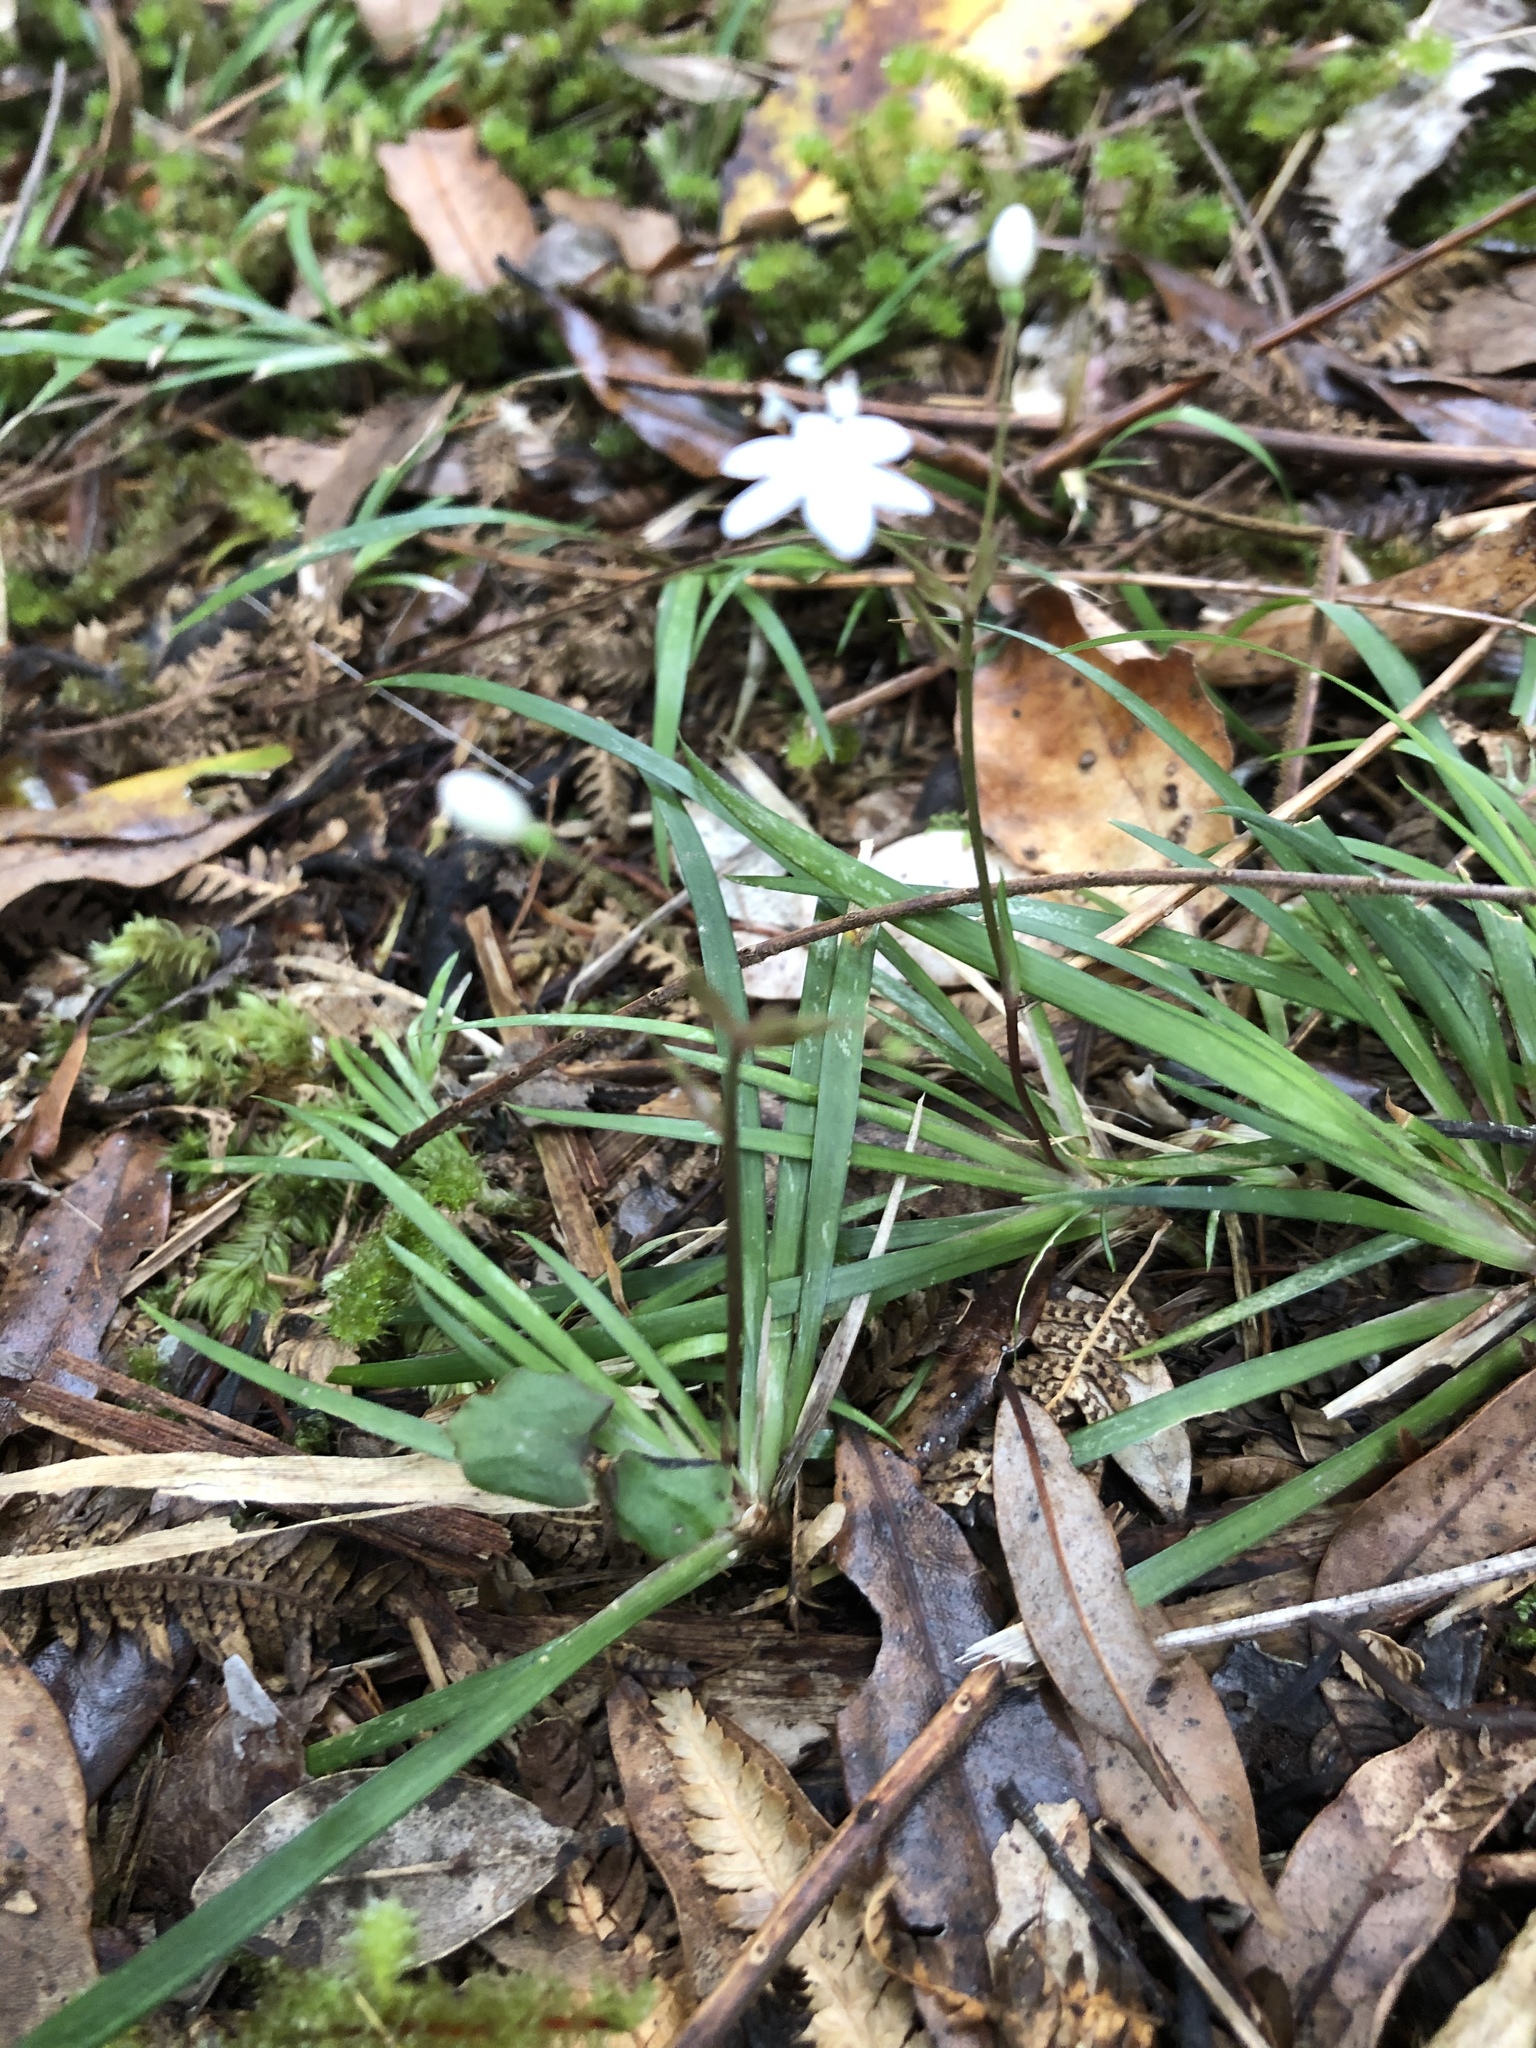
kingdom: Plantae
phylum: Tracheophyta
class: Liliopsida
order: Asparagales
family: Iridaceae
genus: Libertia
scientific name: Libertia micrantha
